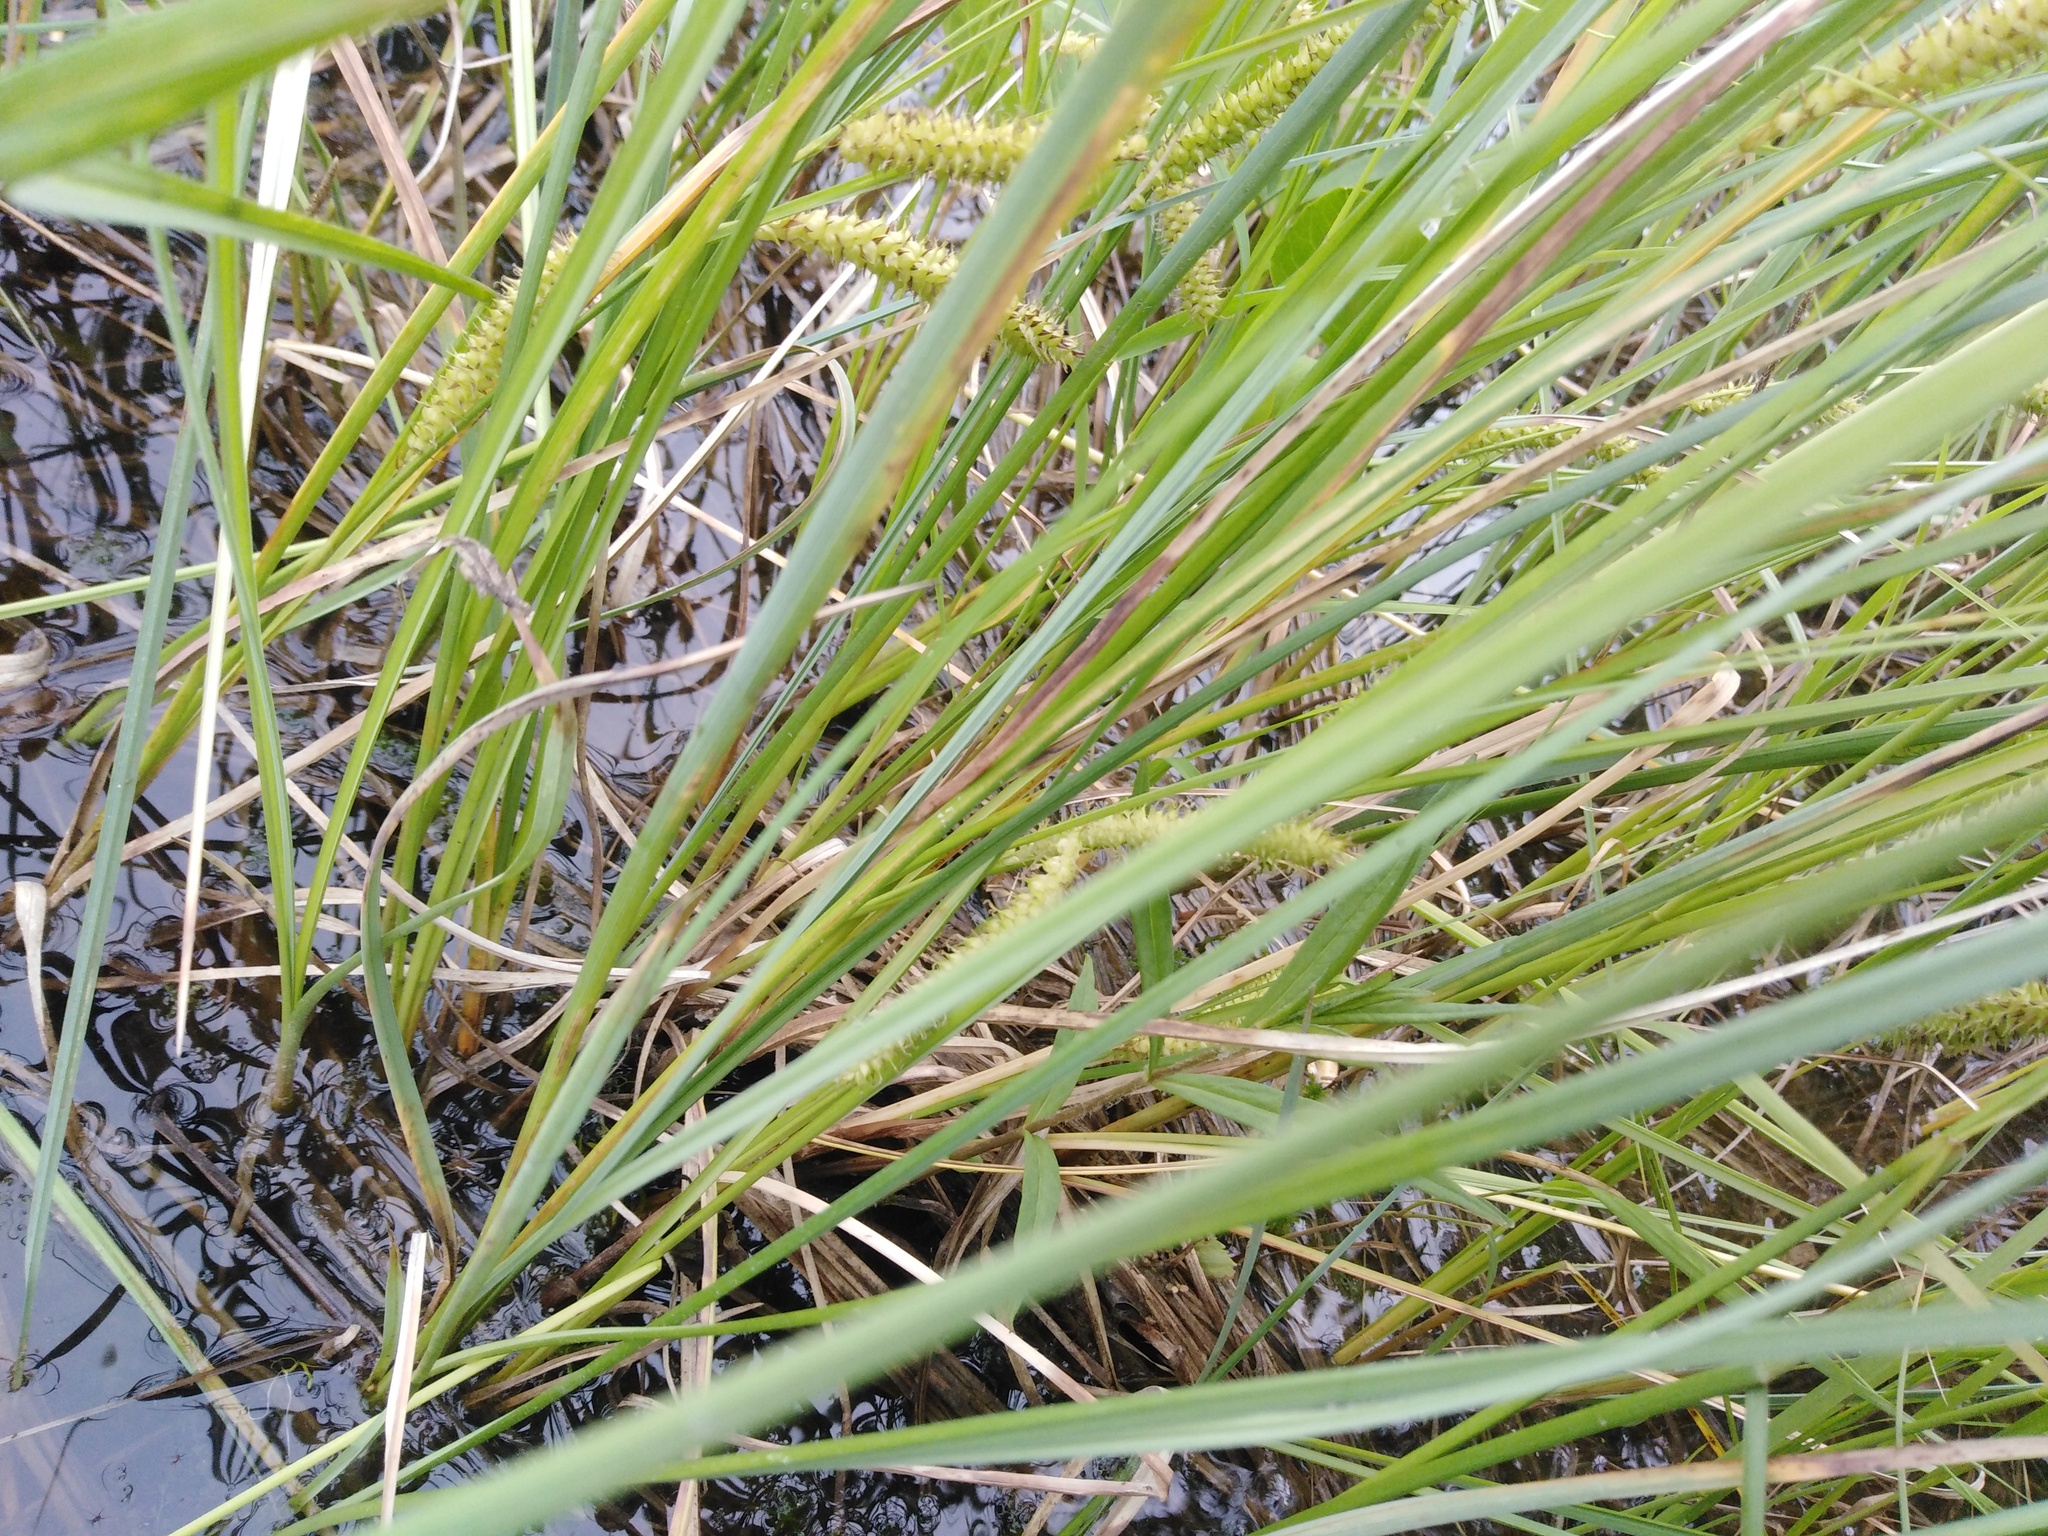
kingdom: Plantae
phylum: Tracheophyta
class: Liliopsida
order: Poales
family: Cyperaceae
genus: Carex
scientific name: Carex rostrata
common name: Bottle sedge
